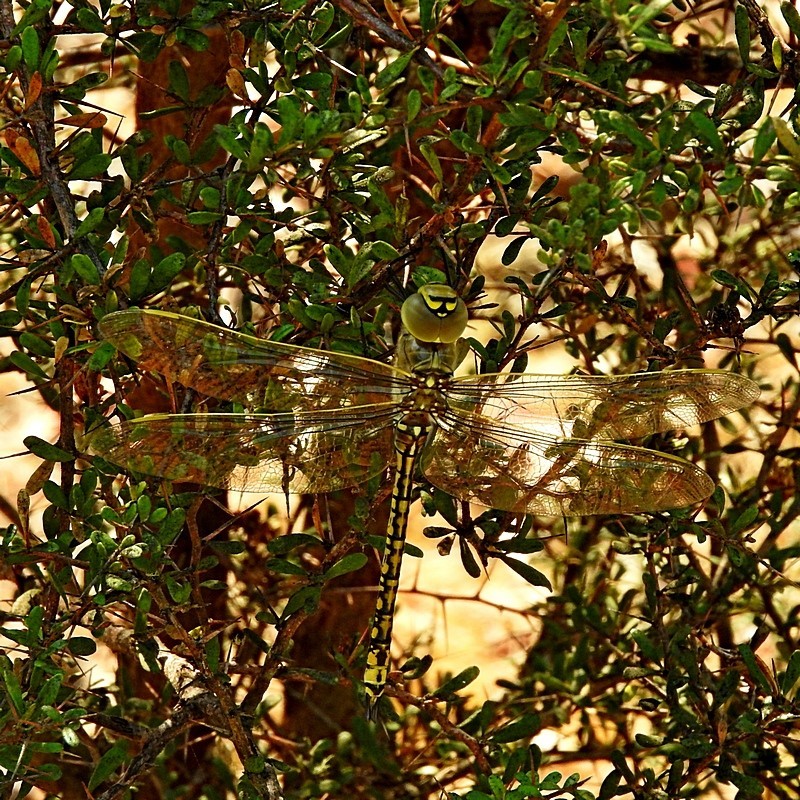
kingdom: Animalia
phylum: Arthropoda
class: Insecta
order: Odonata
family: Aeshnidae
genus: Anax
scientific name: Anax papuensis
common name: Australian emperor
